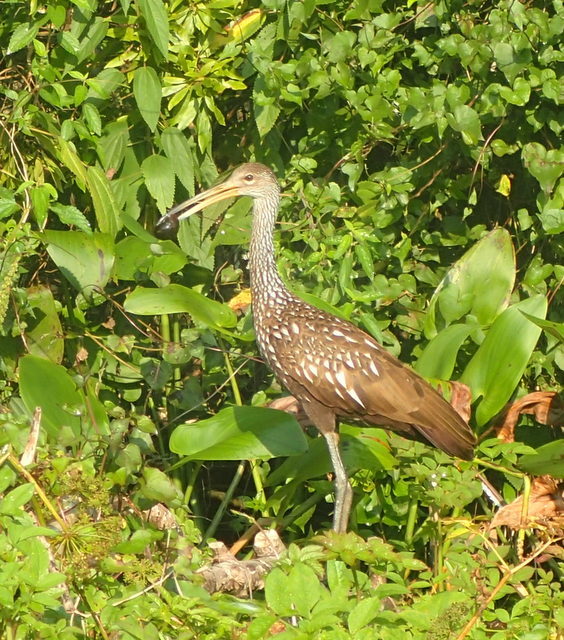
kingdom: Animalia
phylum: Chordata
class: Aves
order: Gruiformes
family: Aramidae
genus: Aramus
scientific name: Aramus guarauna
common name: Limpkin
